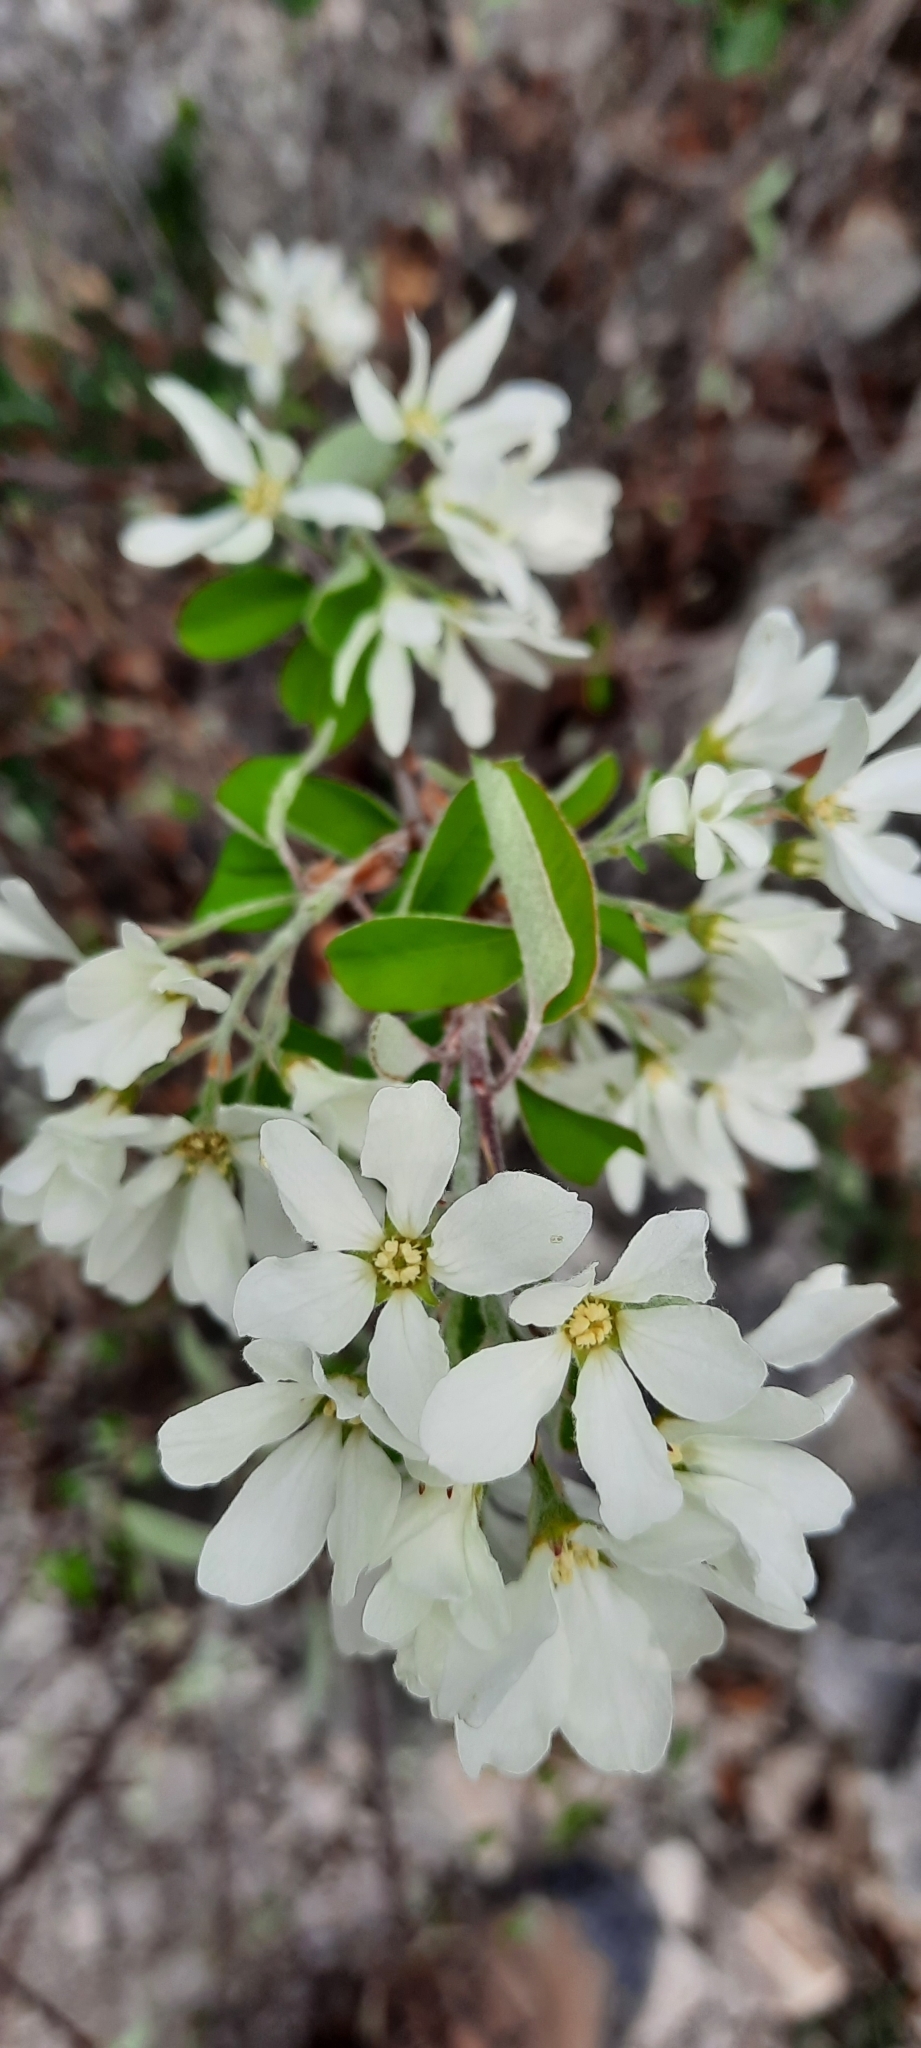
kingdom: Plantae
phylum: Tracheophyta
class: Magnoliopsida
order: Rosales
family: Rosaceae
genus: Amelanchier
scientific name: Amelanchier ovalis
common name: Serviceberry
